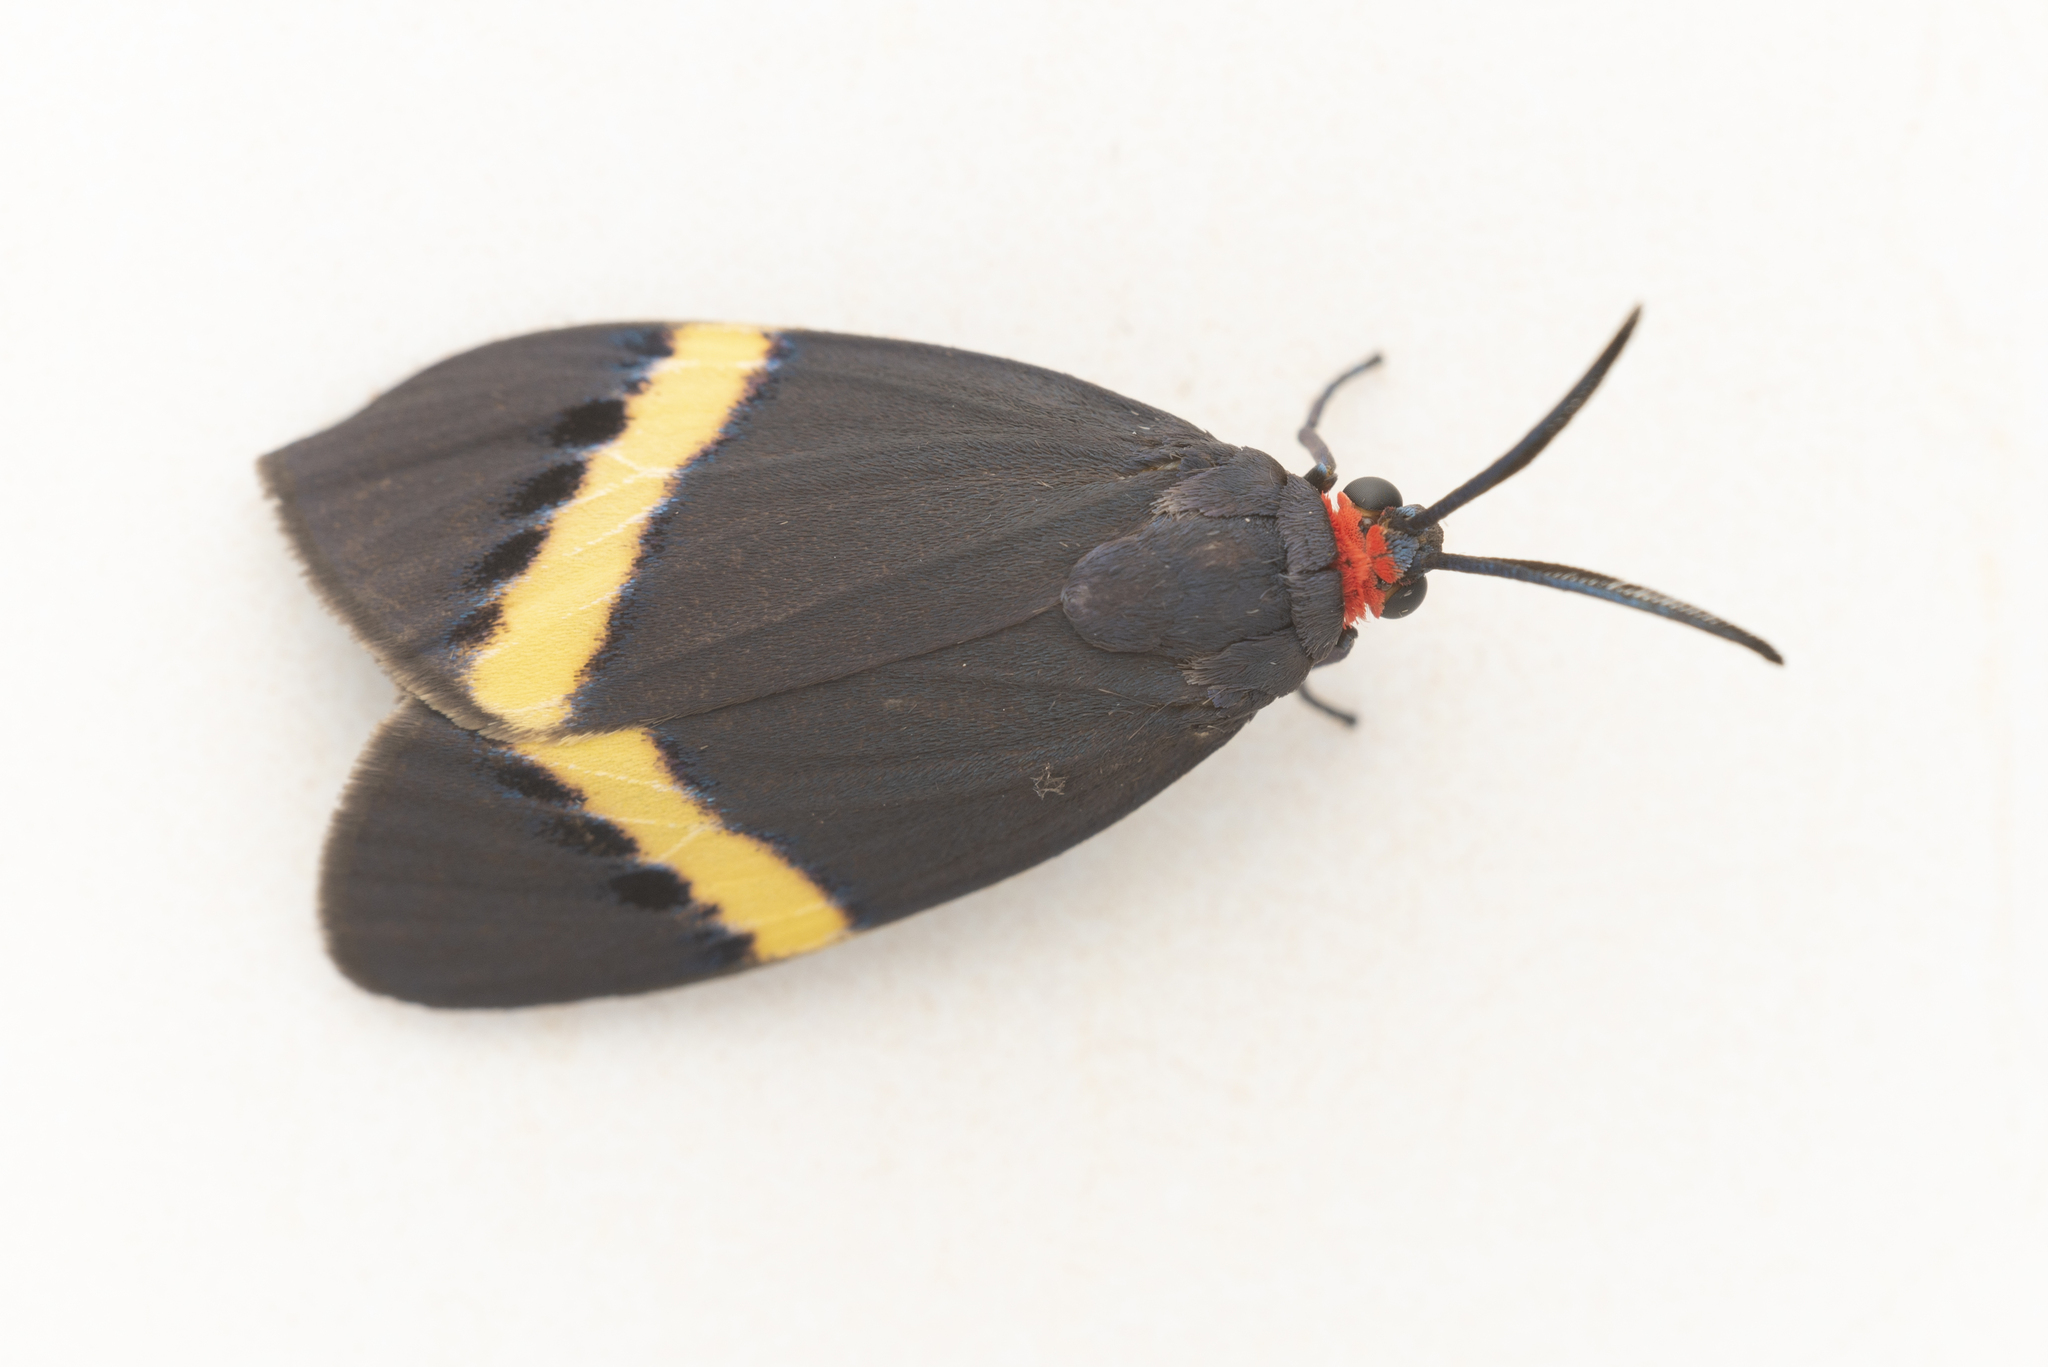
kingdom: Animalia
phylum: Arthropoda
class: Insecta
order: Lepidoptera
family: Zygaenidae
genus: Pidorus
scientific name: Pidorus gemina
